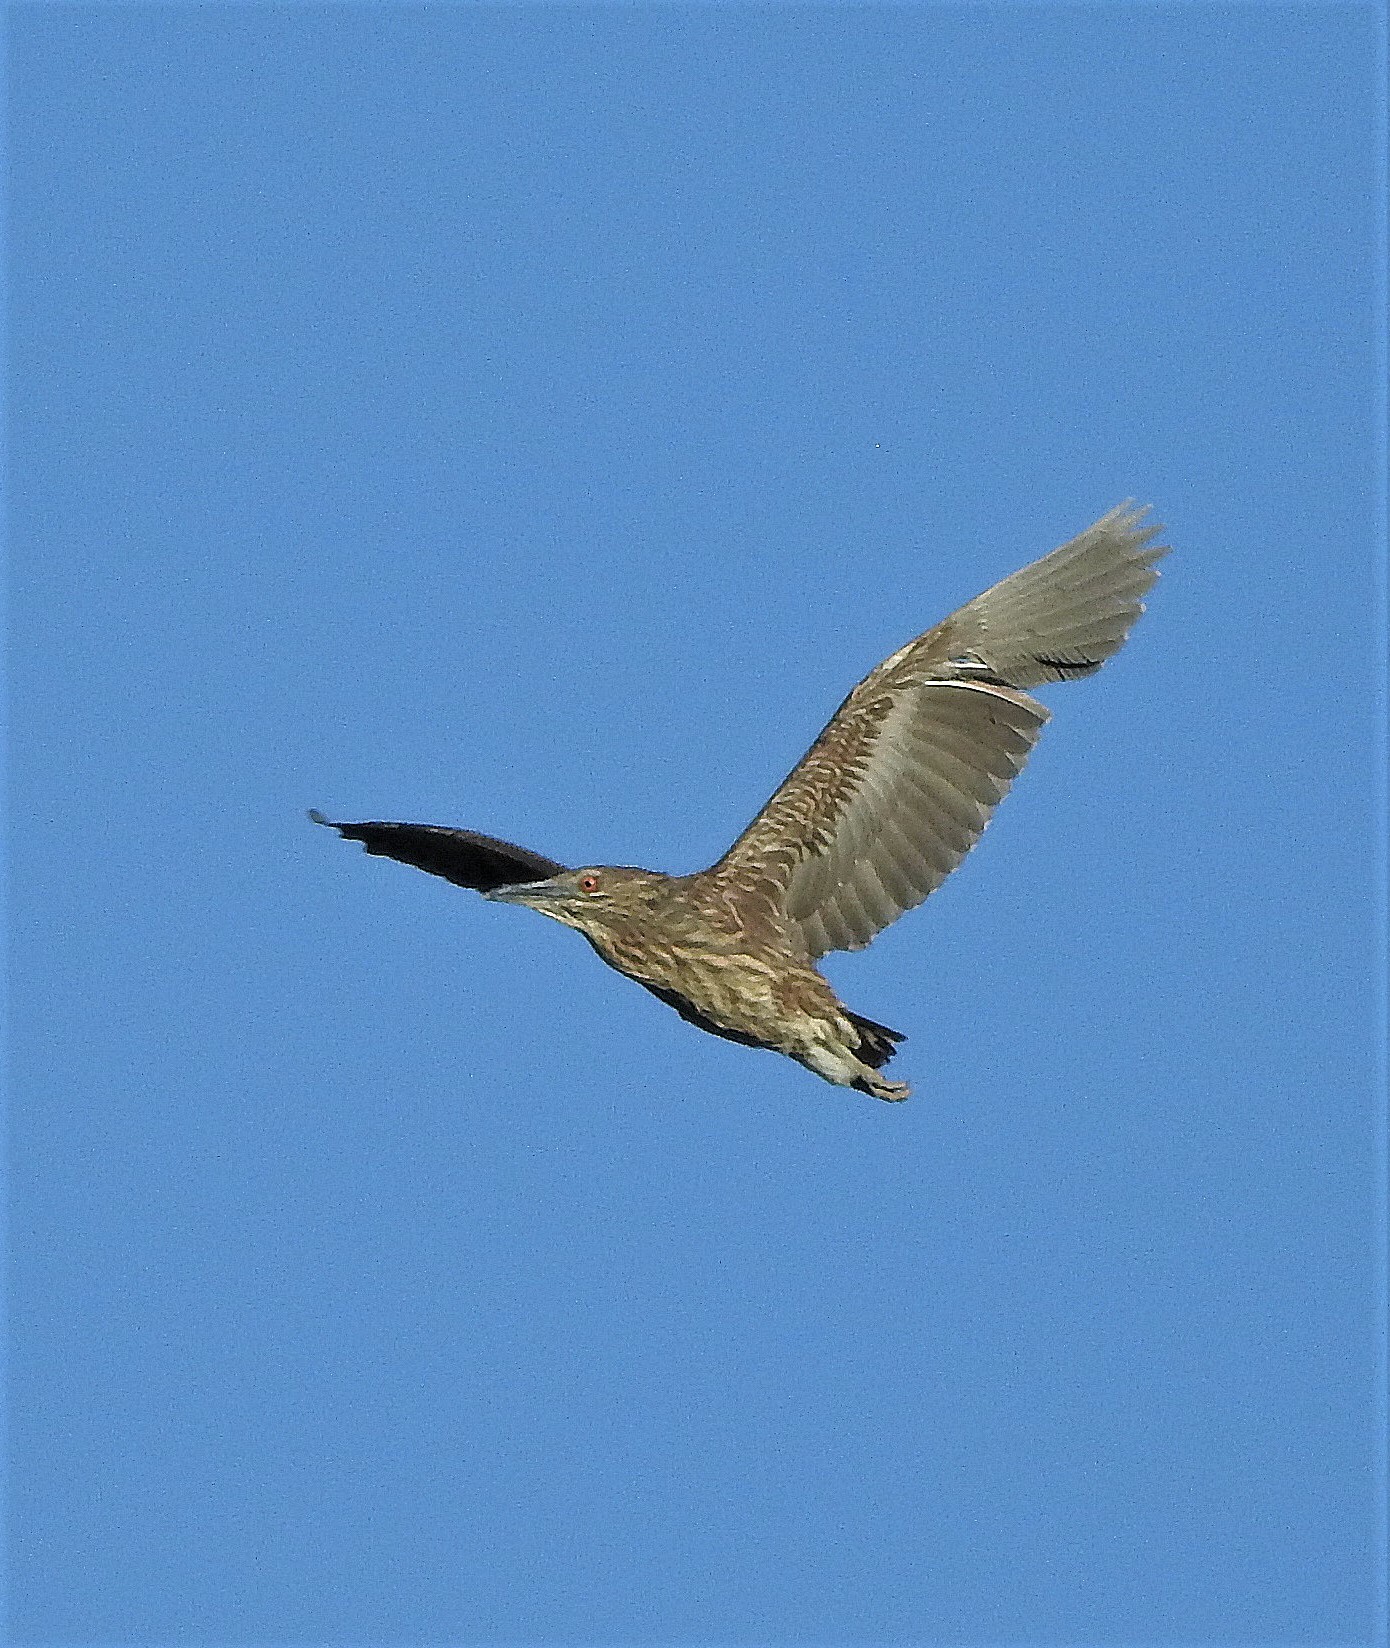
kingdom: Animalia
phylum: Chordata
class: Aves
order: Pelecaniformes
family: Ardeidae
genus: Nycticorax
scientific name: Nycticorax nycticorax
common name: Black-crowned night heron
